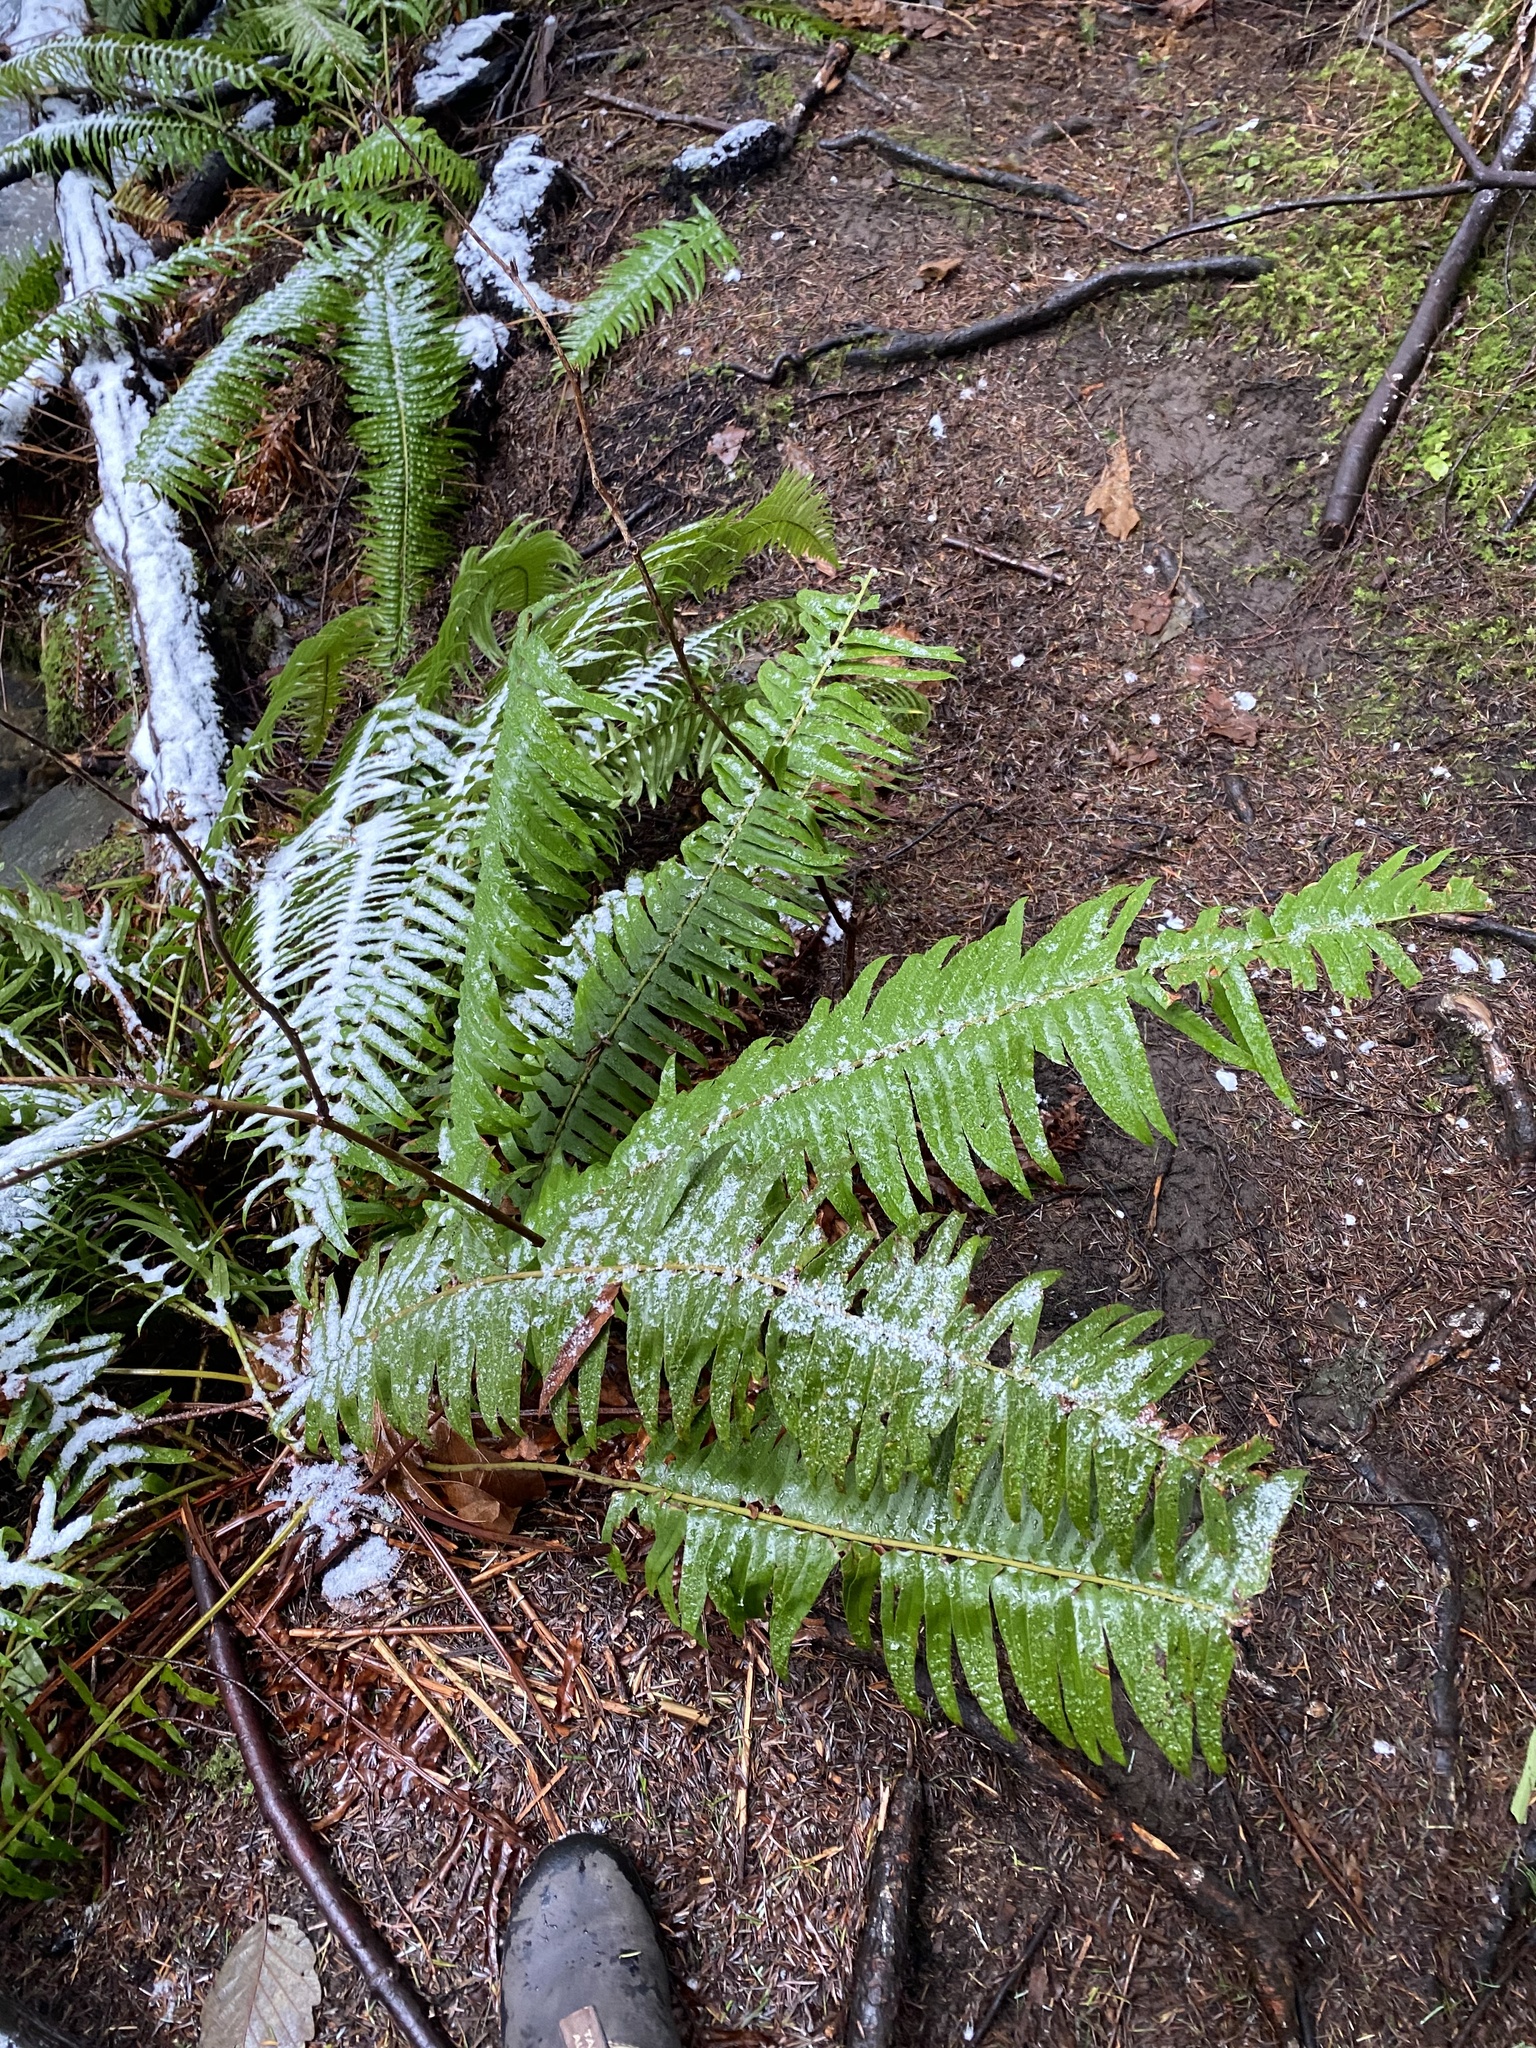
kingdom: Plantae
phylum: Tracheophyta
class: Polypodiopsida
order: Polypodiales
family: Dryopteridaceae
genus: Polystichum
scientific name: Polystichum munitum
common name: Western sword-fern
